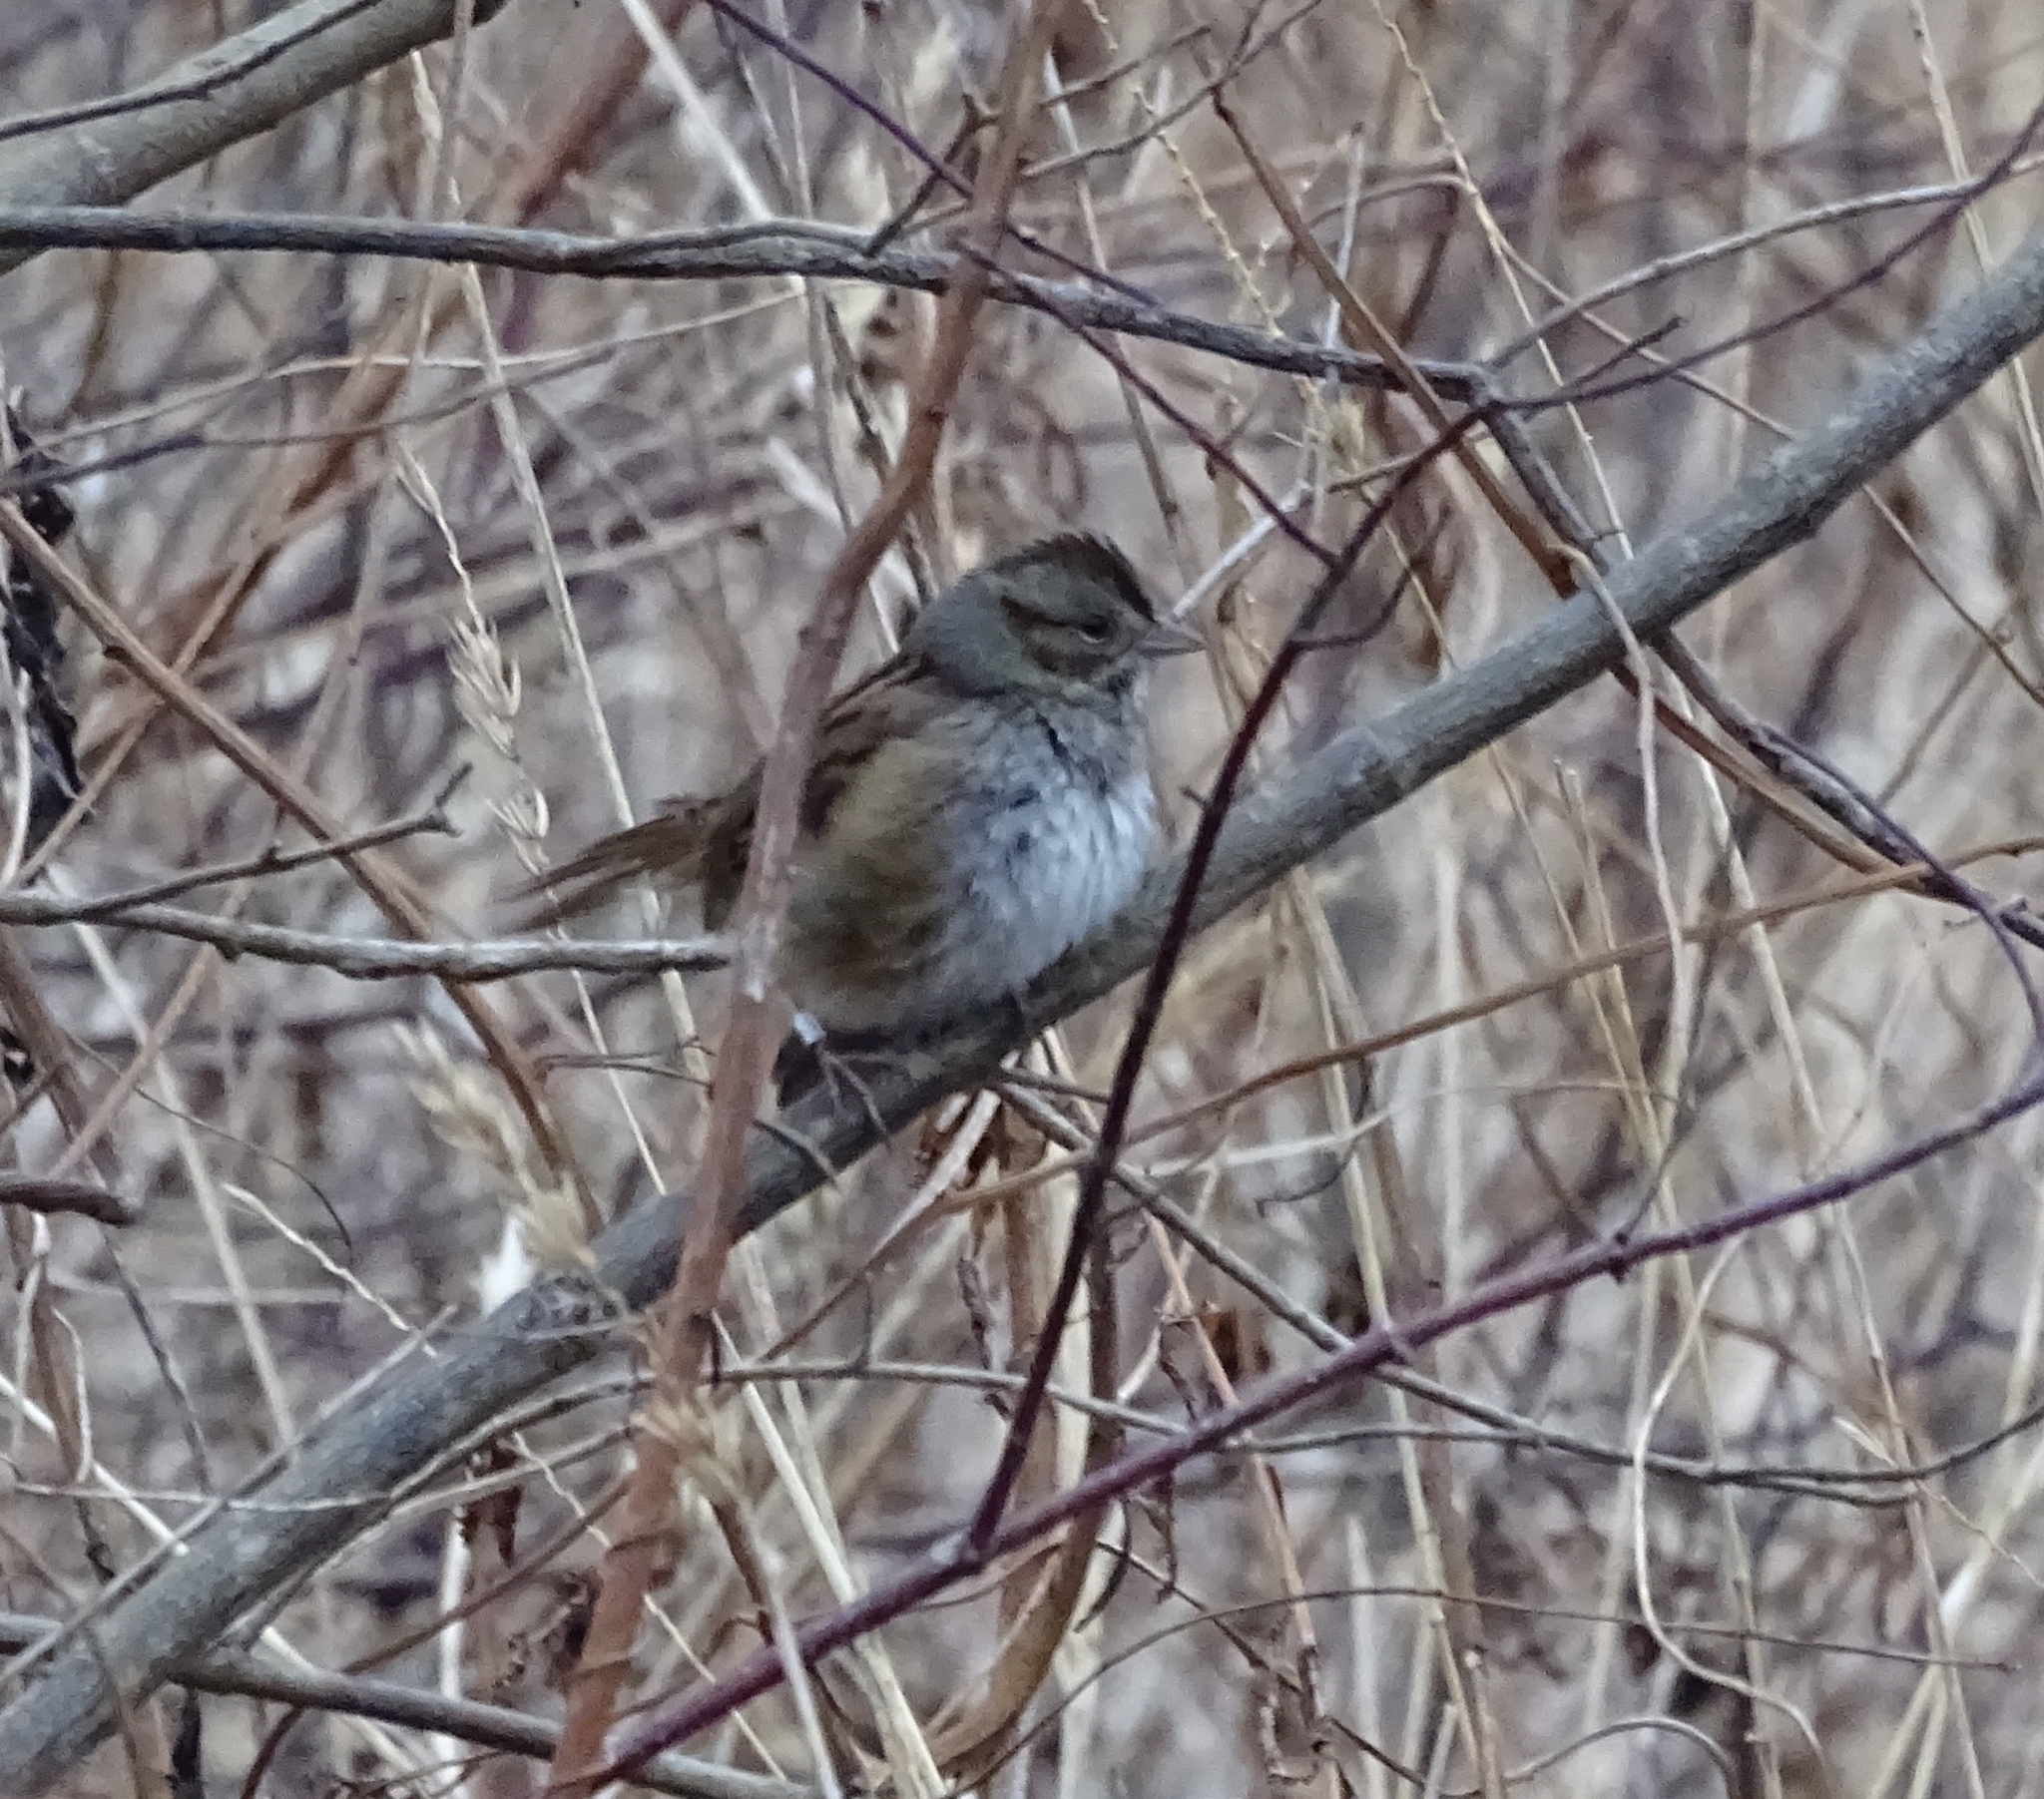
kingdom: Animalia
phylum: Chordata
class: Aves
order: Passeriformes
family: Passerellidae
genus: Melospiza
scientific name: Melospiza georgiana
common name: Swamp sparrow
